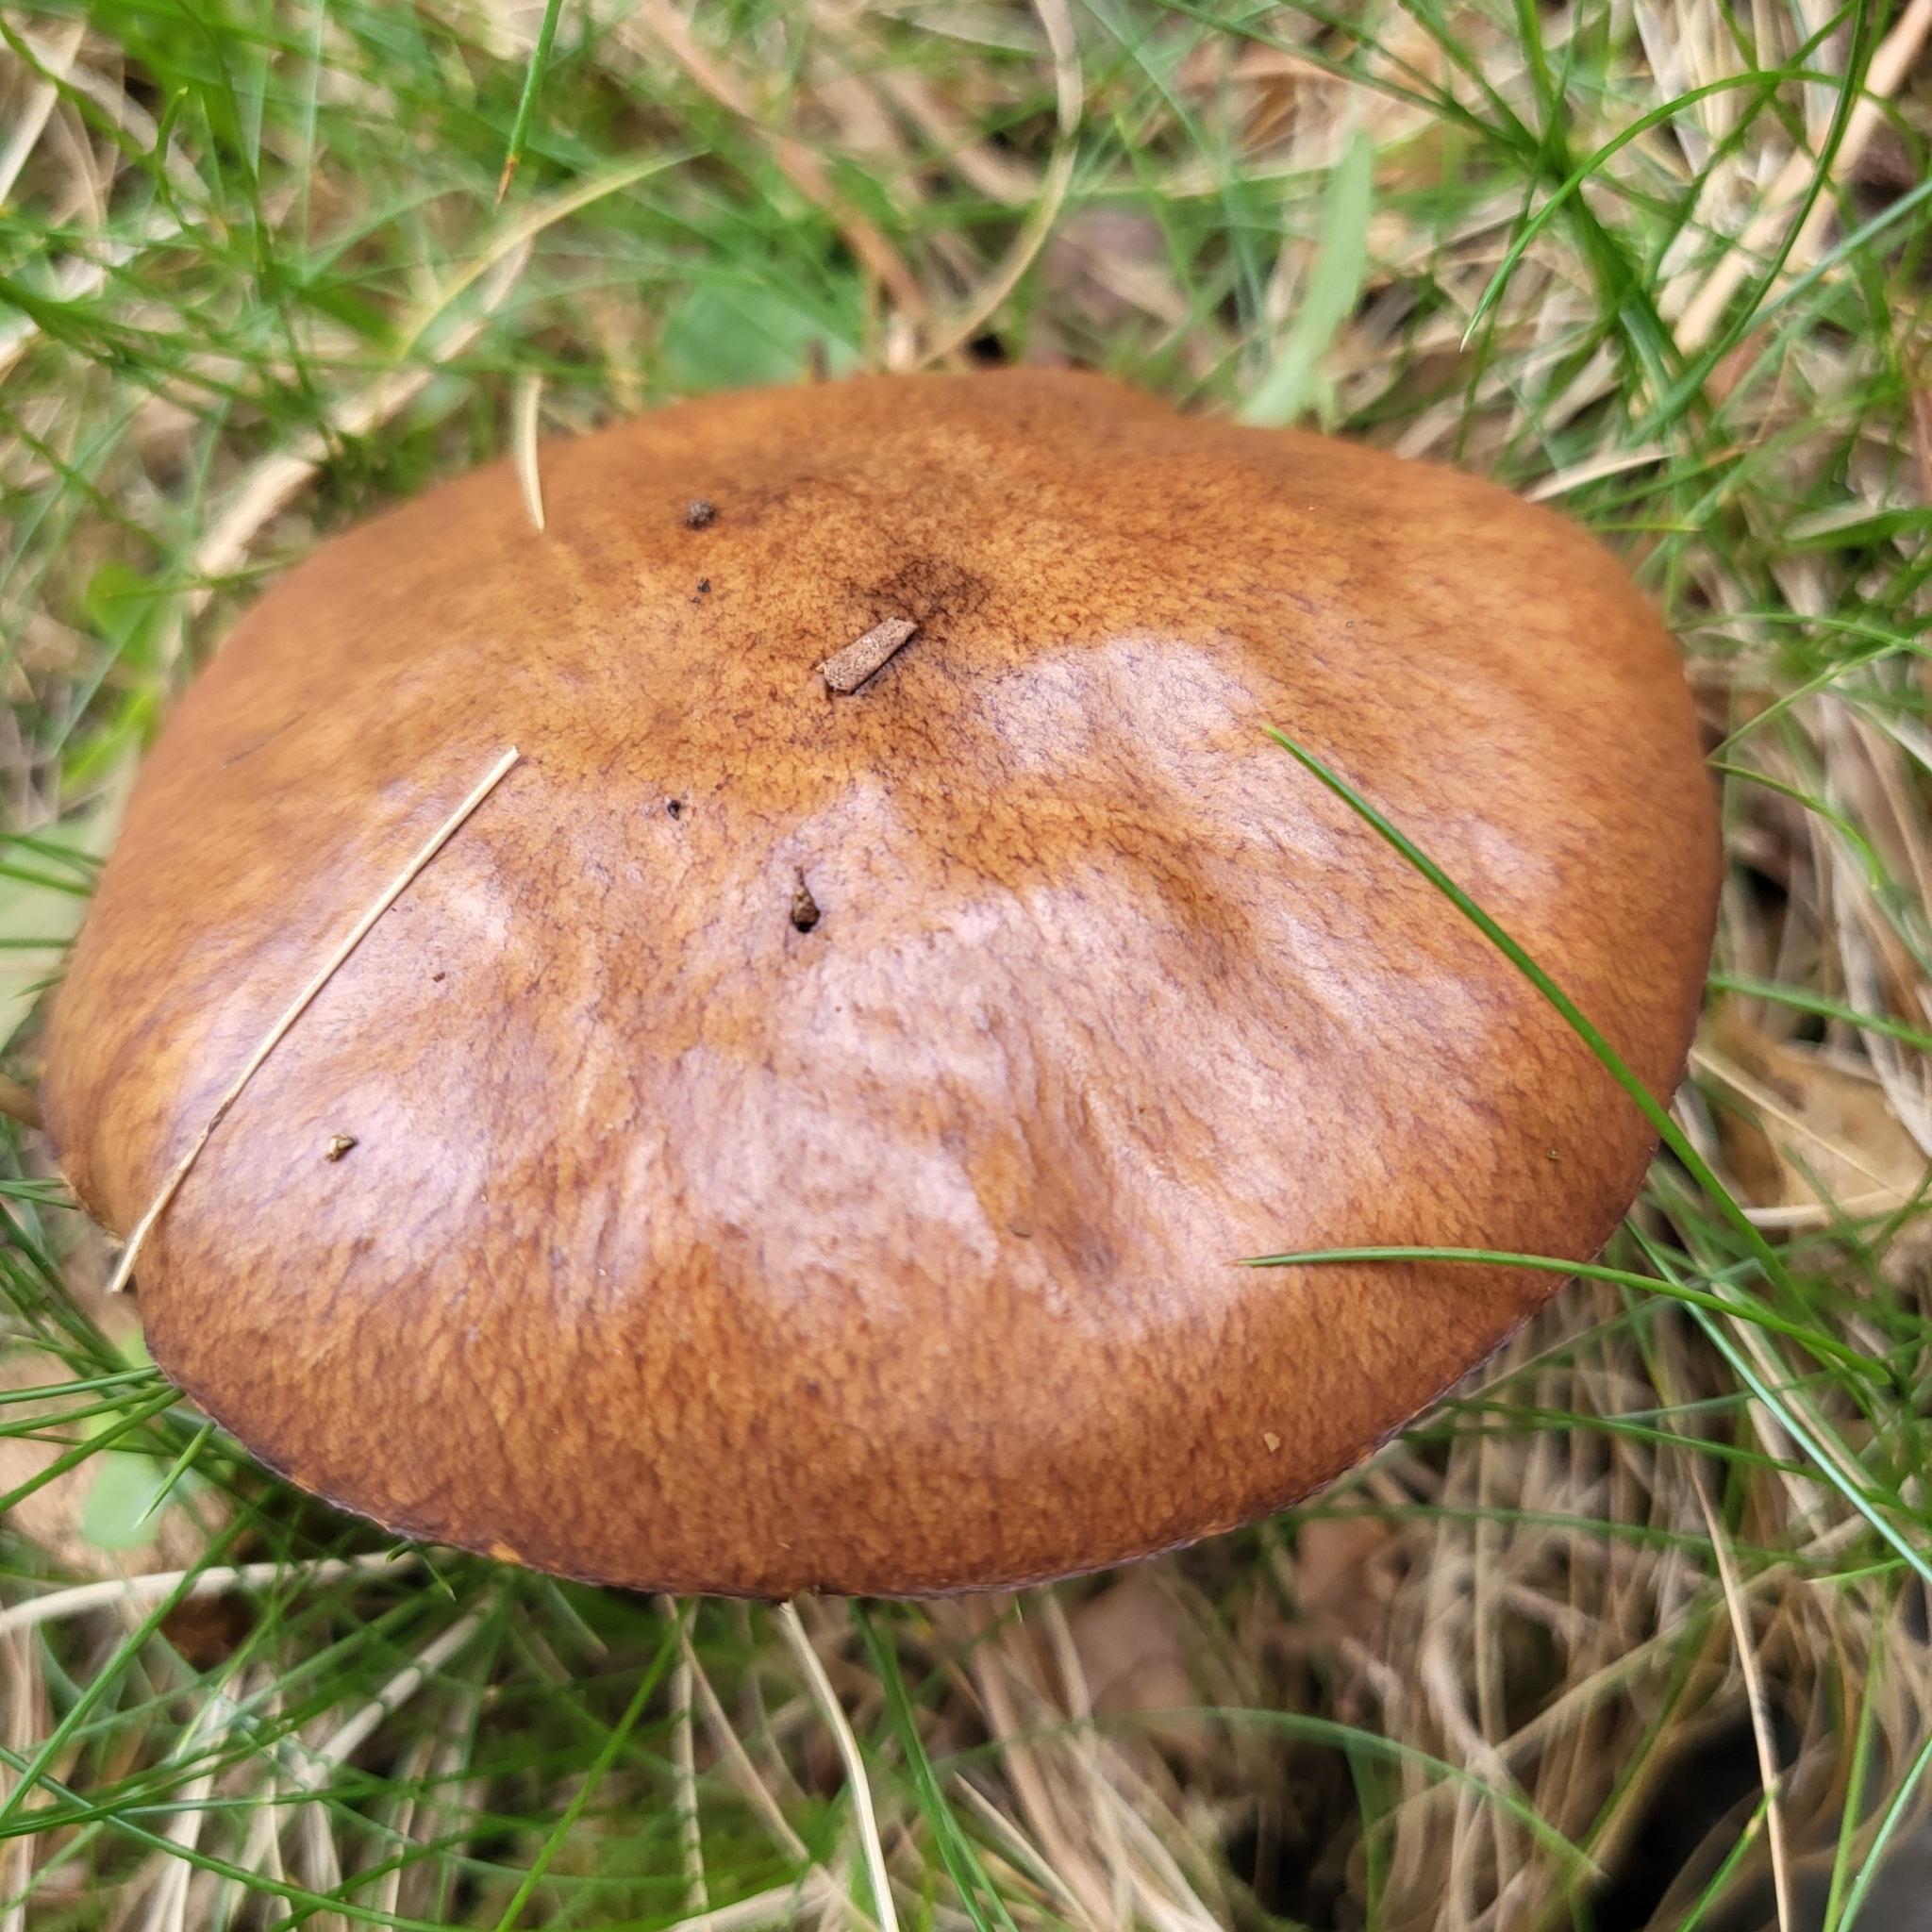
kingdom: Fungi
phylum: Basidiomycota
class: Agaricomycetes
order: Boletales
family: Suillaceae
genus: Suillus
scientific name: Suillus luteus
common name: Slippery jack
